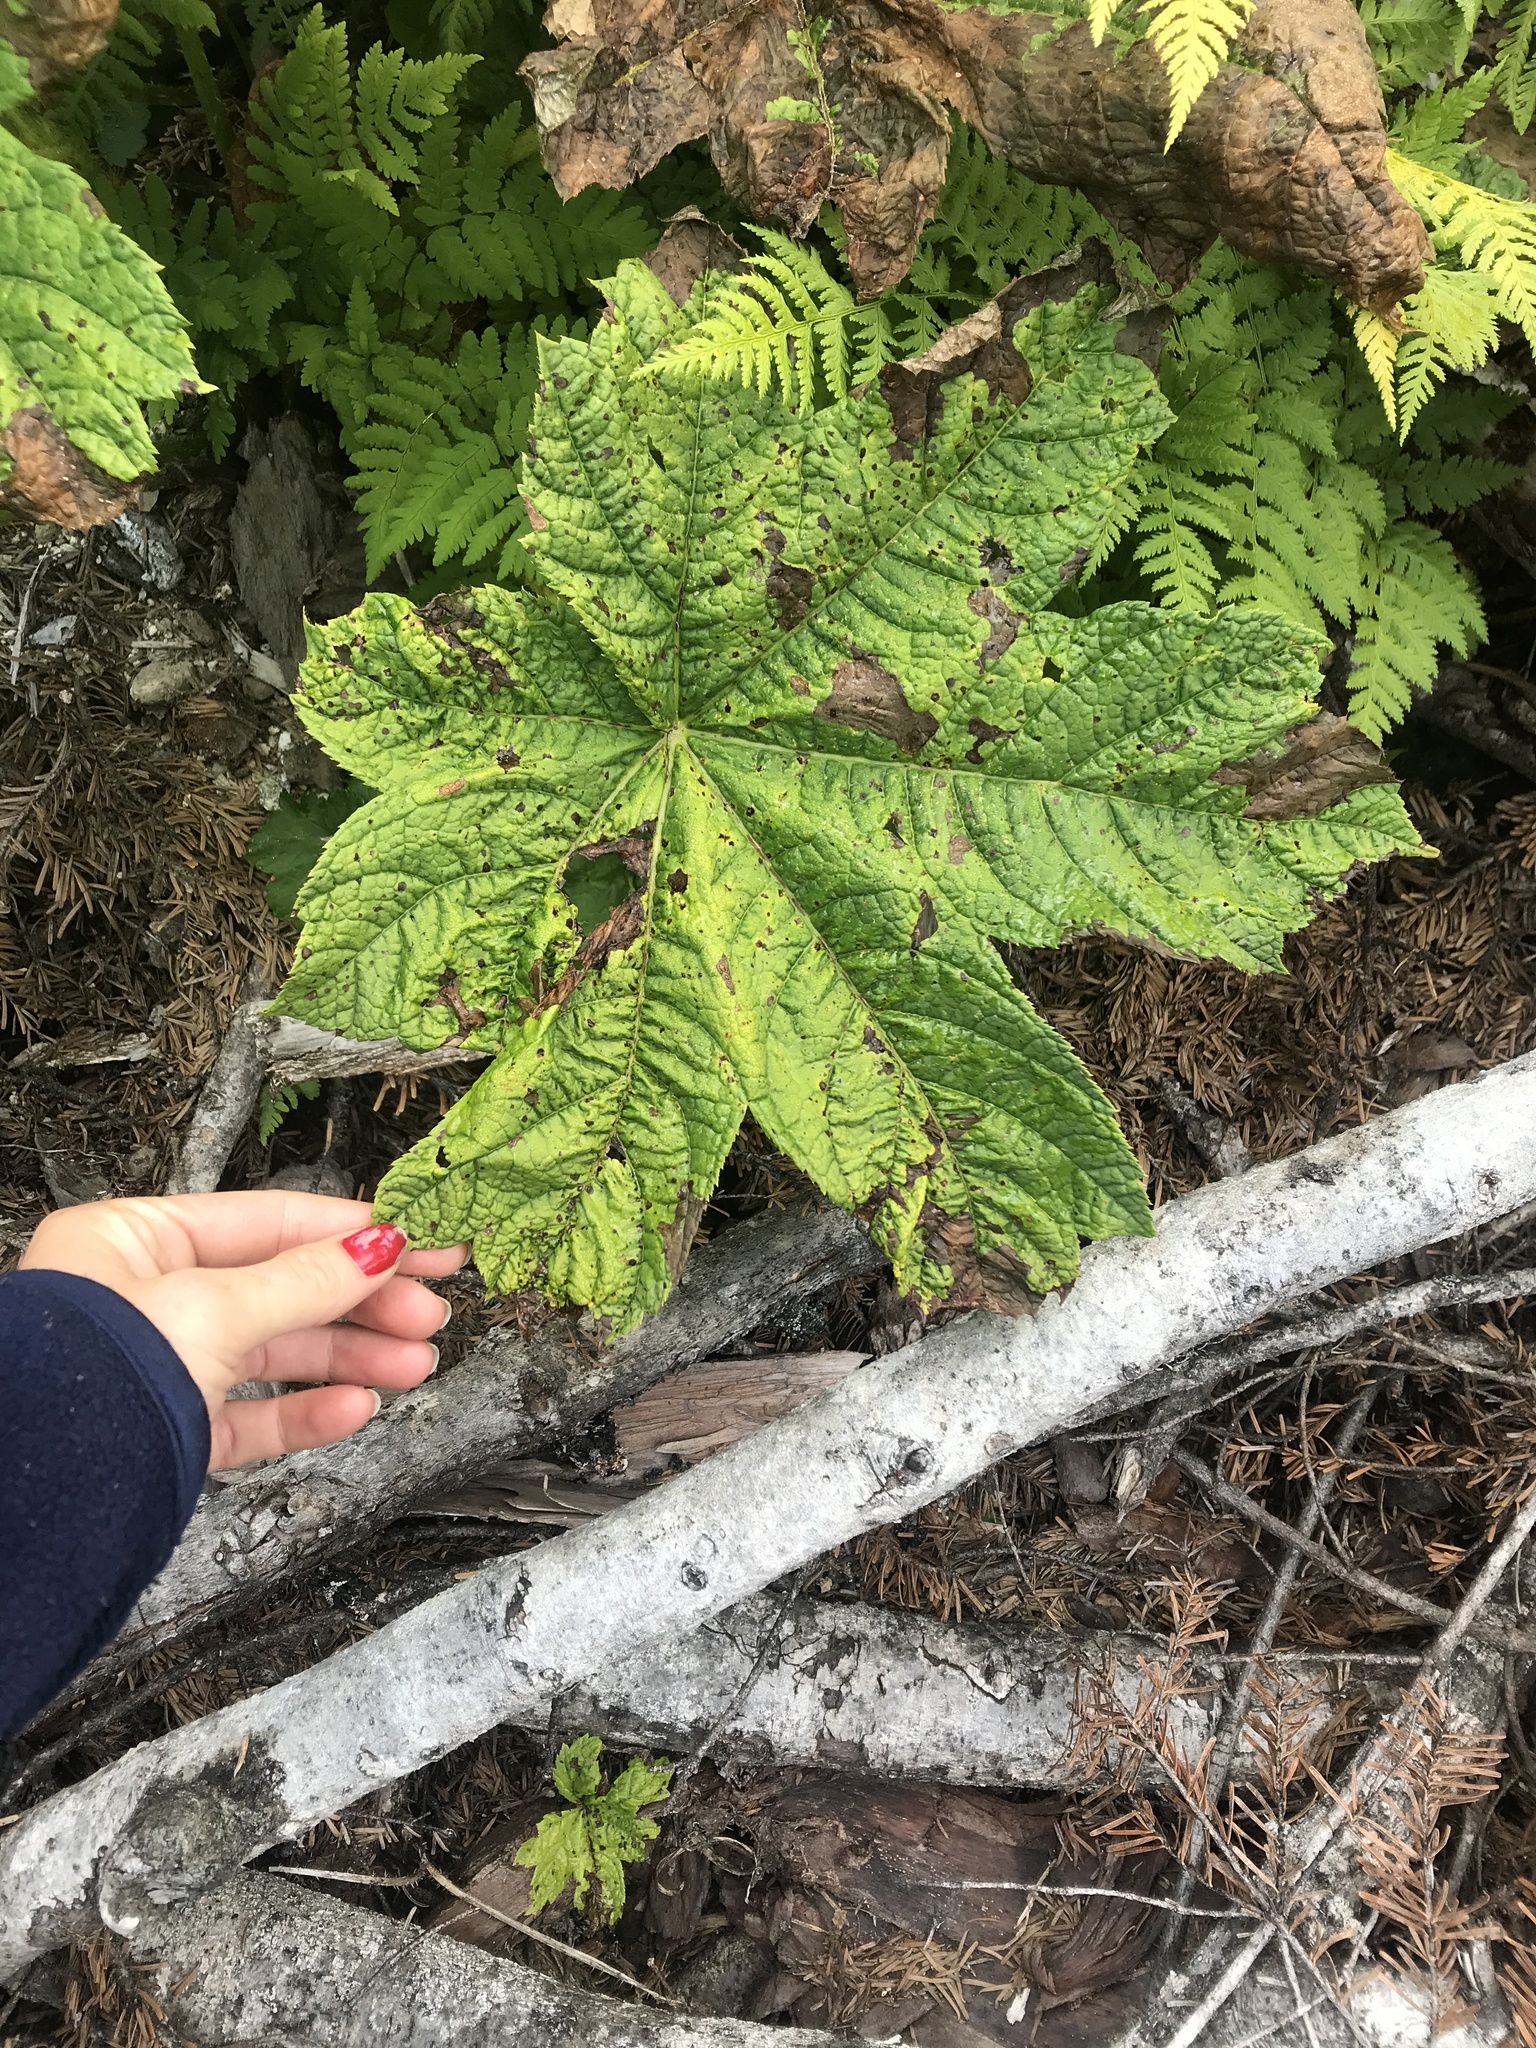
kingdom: Plantae
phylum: Tracheophyta
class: Magnoliopsida
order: Apiales
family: Araliaceae
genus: Oplopanax
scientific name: Oplopanax horridus
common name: Devil's walking-stick
